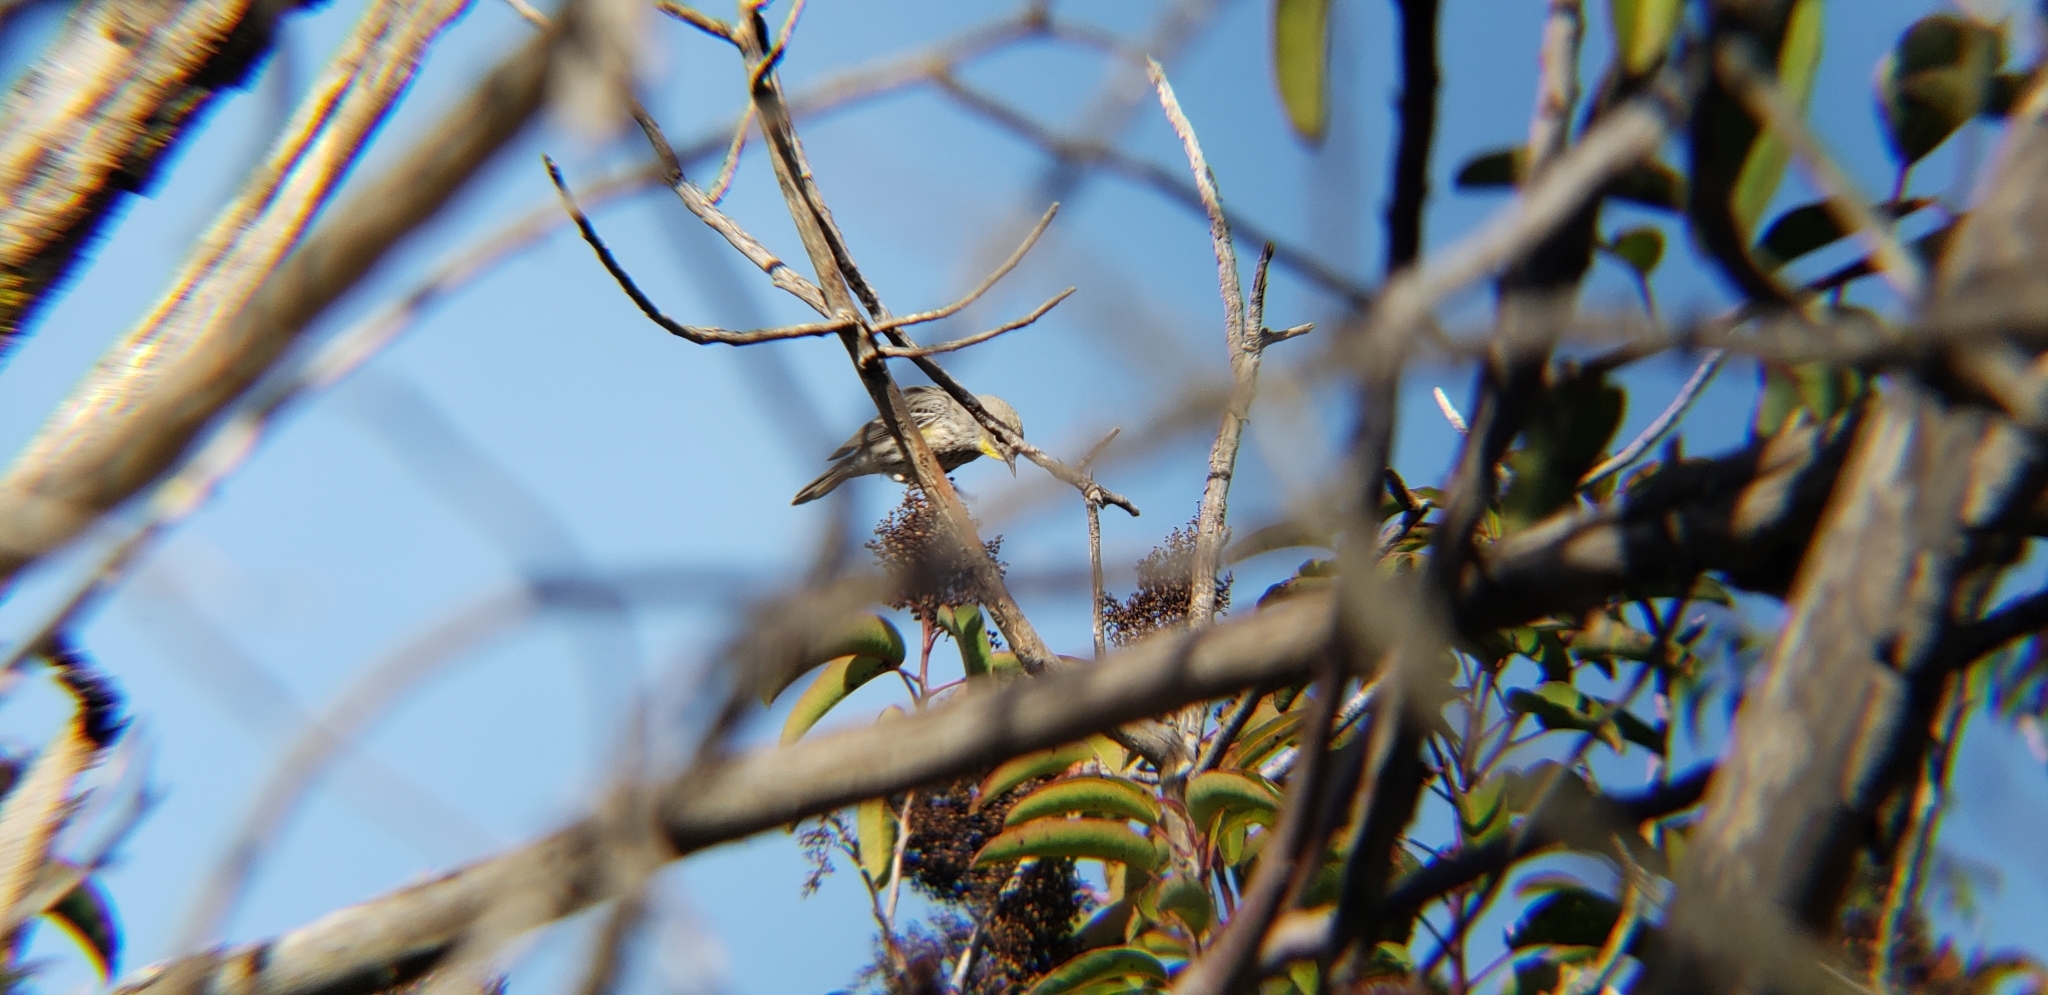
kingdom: Animalia
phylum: Chordata
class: Aves
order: Passeriformes
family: Parulidae
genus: Setophaga
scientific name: Setophaga coronata
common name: Myrtle warbler
